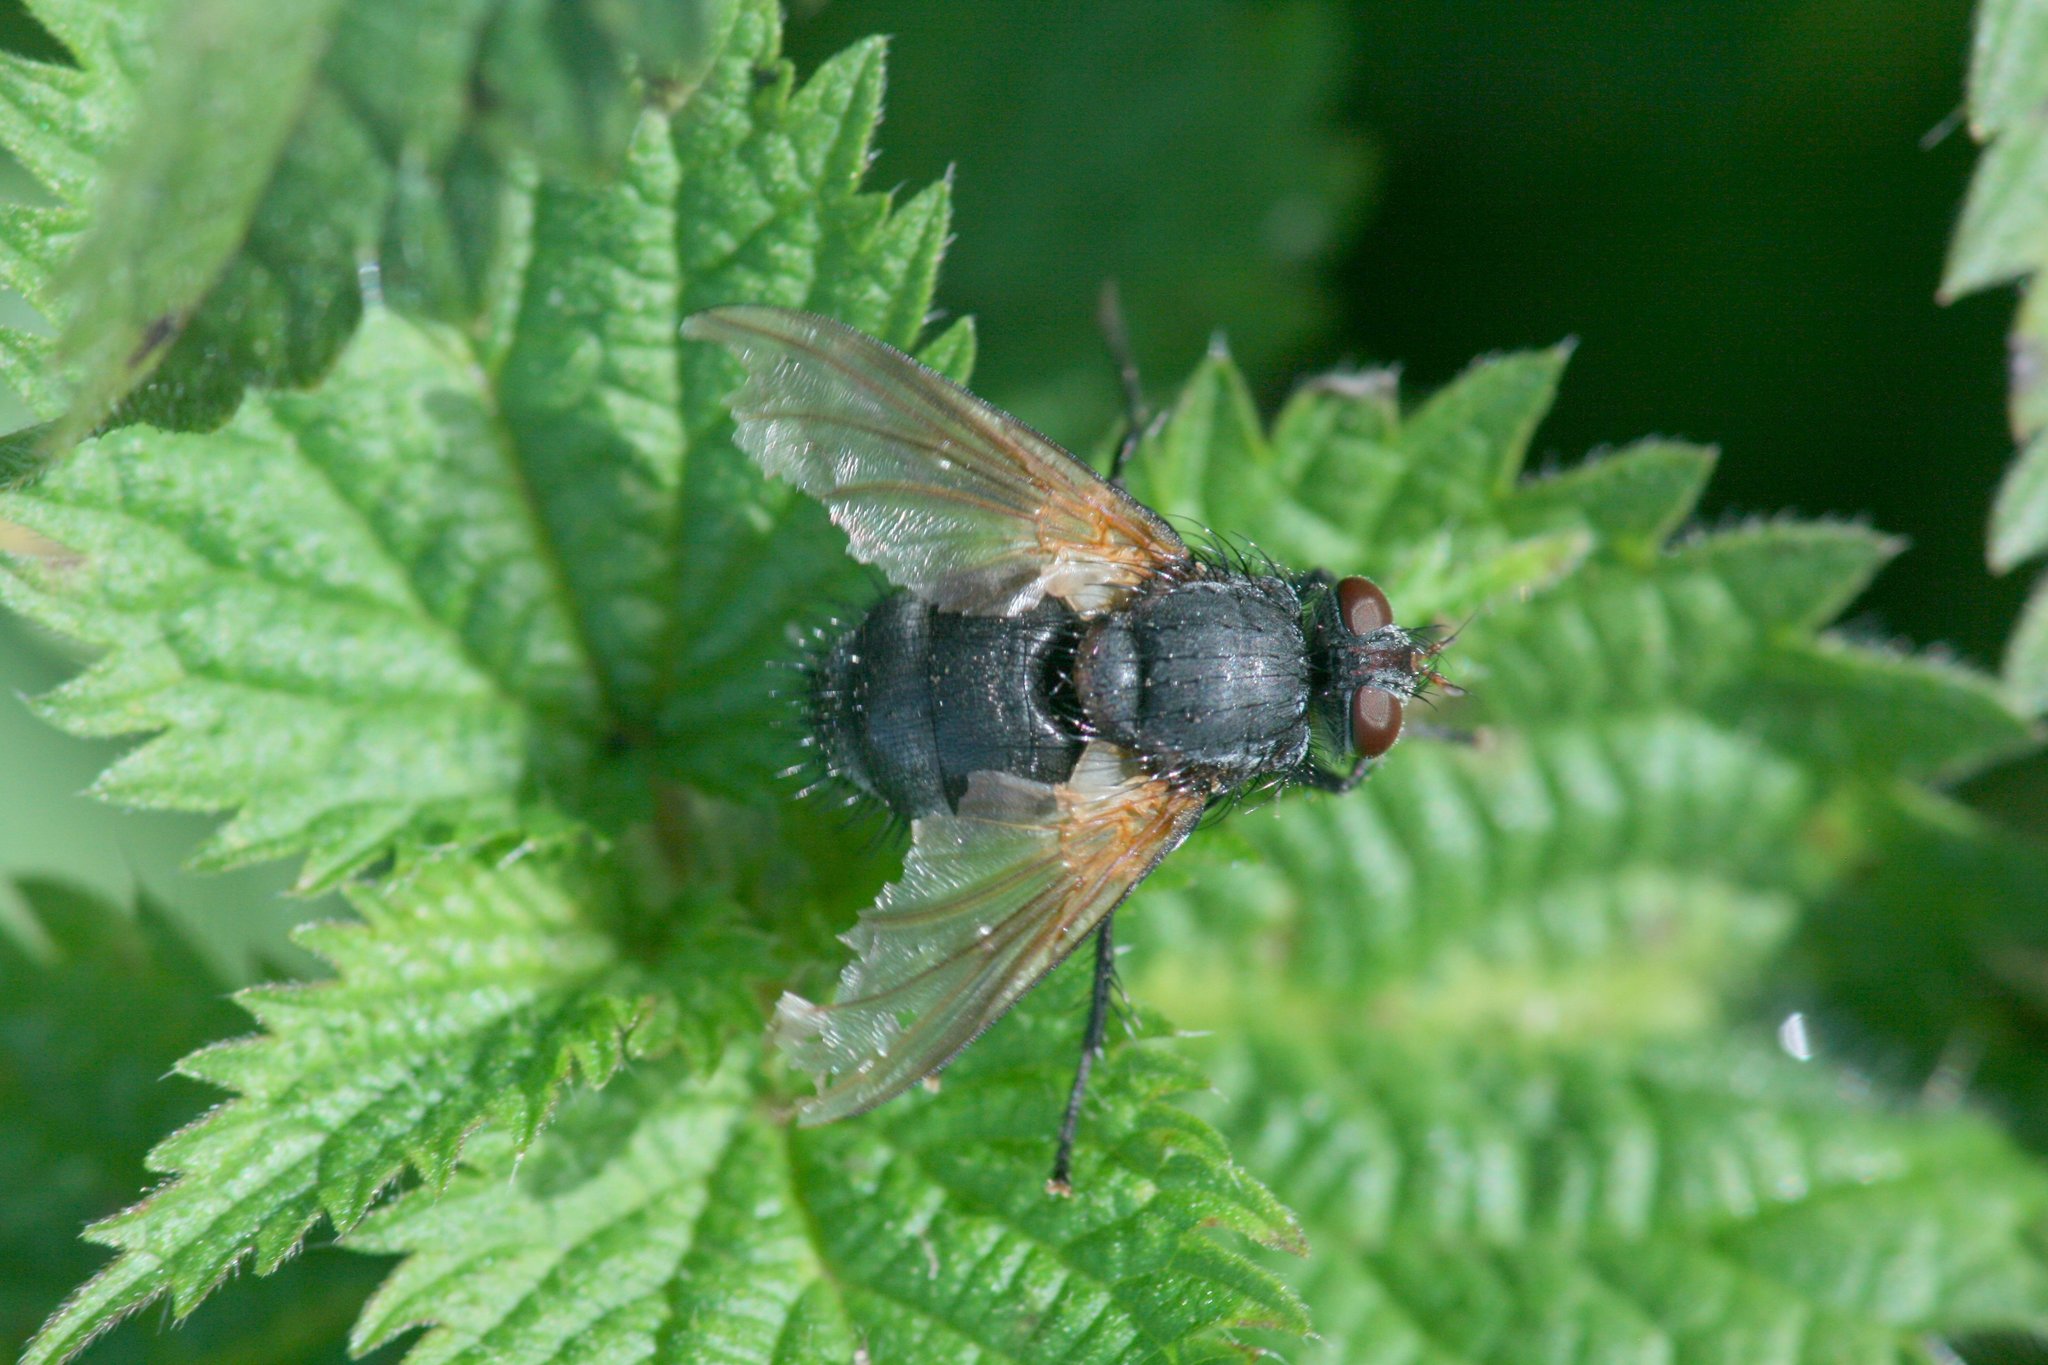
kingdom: Animalia
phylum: Arthropoda
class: Insecta
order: Diptera
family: Tachinidae
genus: Nemoraea
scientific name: Nemoraea pellucida
